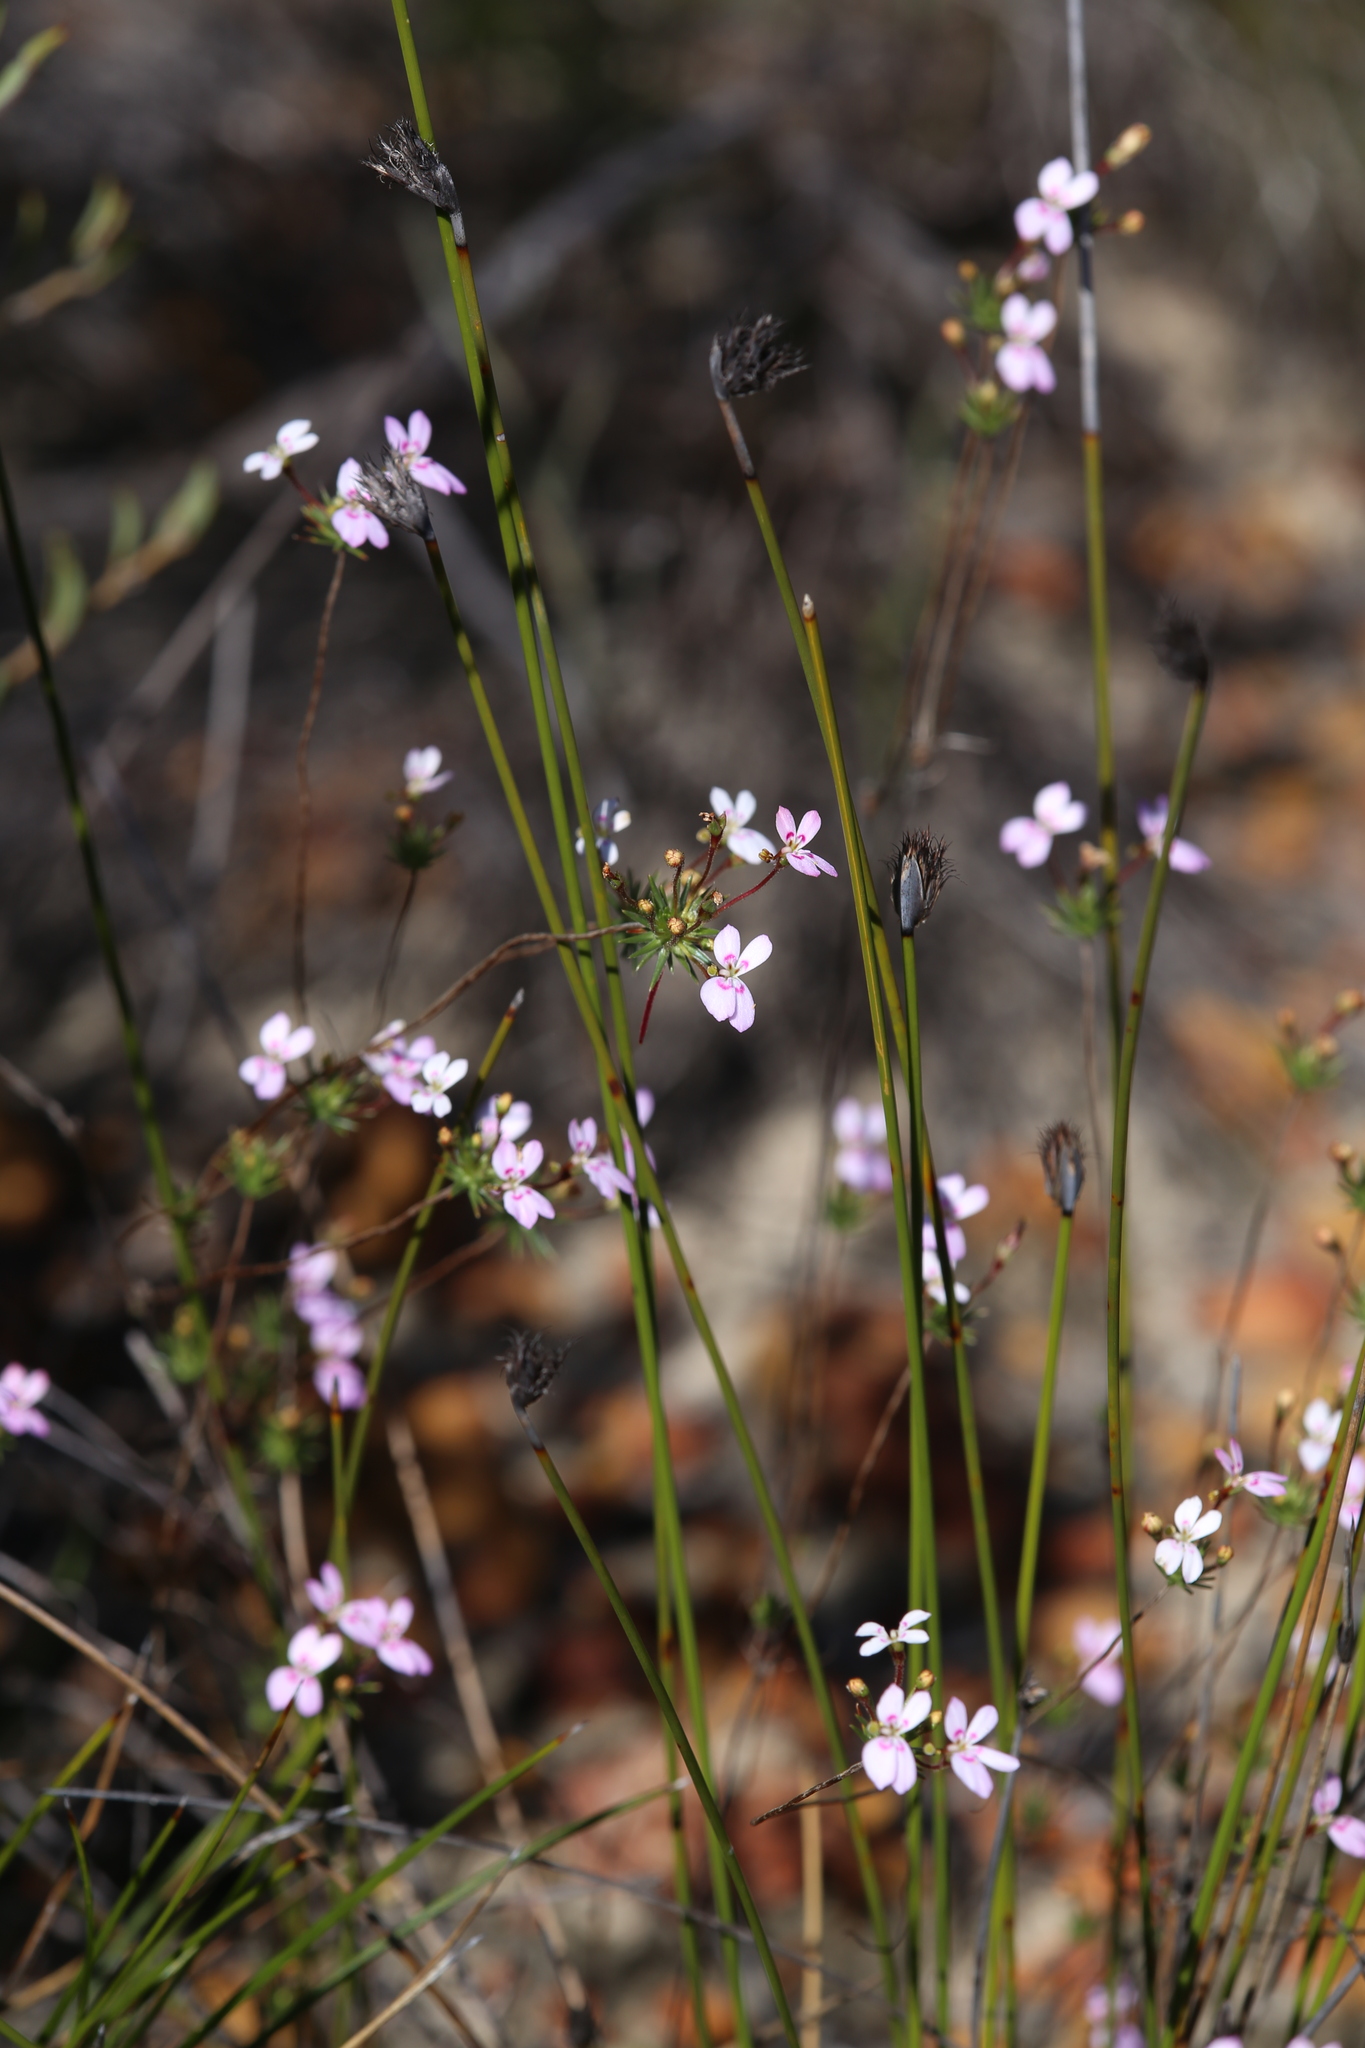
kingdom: Plantae
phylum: Tracheophyta
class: Magnoliopsida
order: Asterales
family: Stylidiaceae
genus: Stylidium
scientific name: Stylidium flagellum
